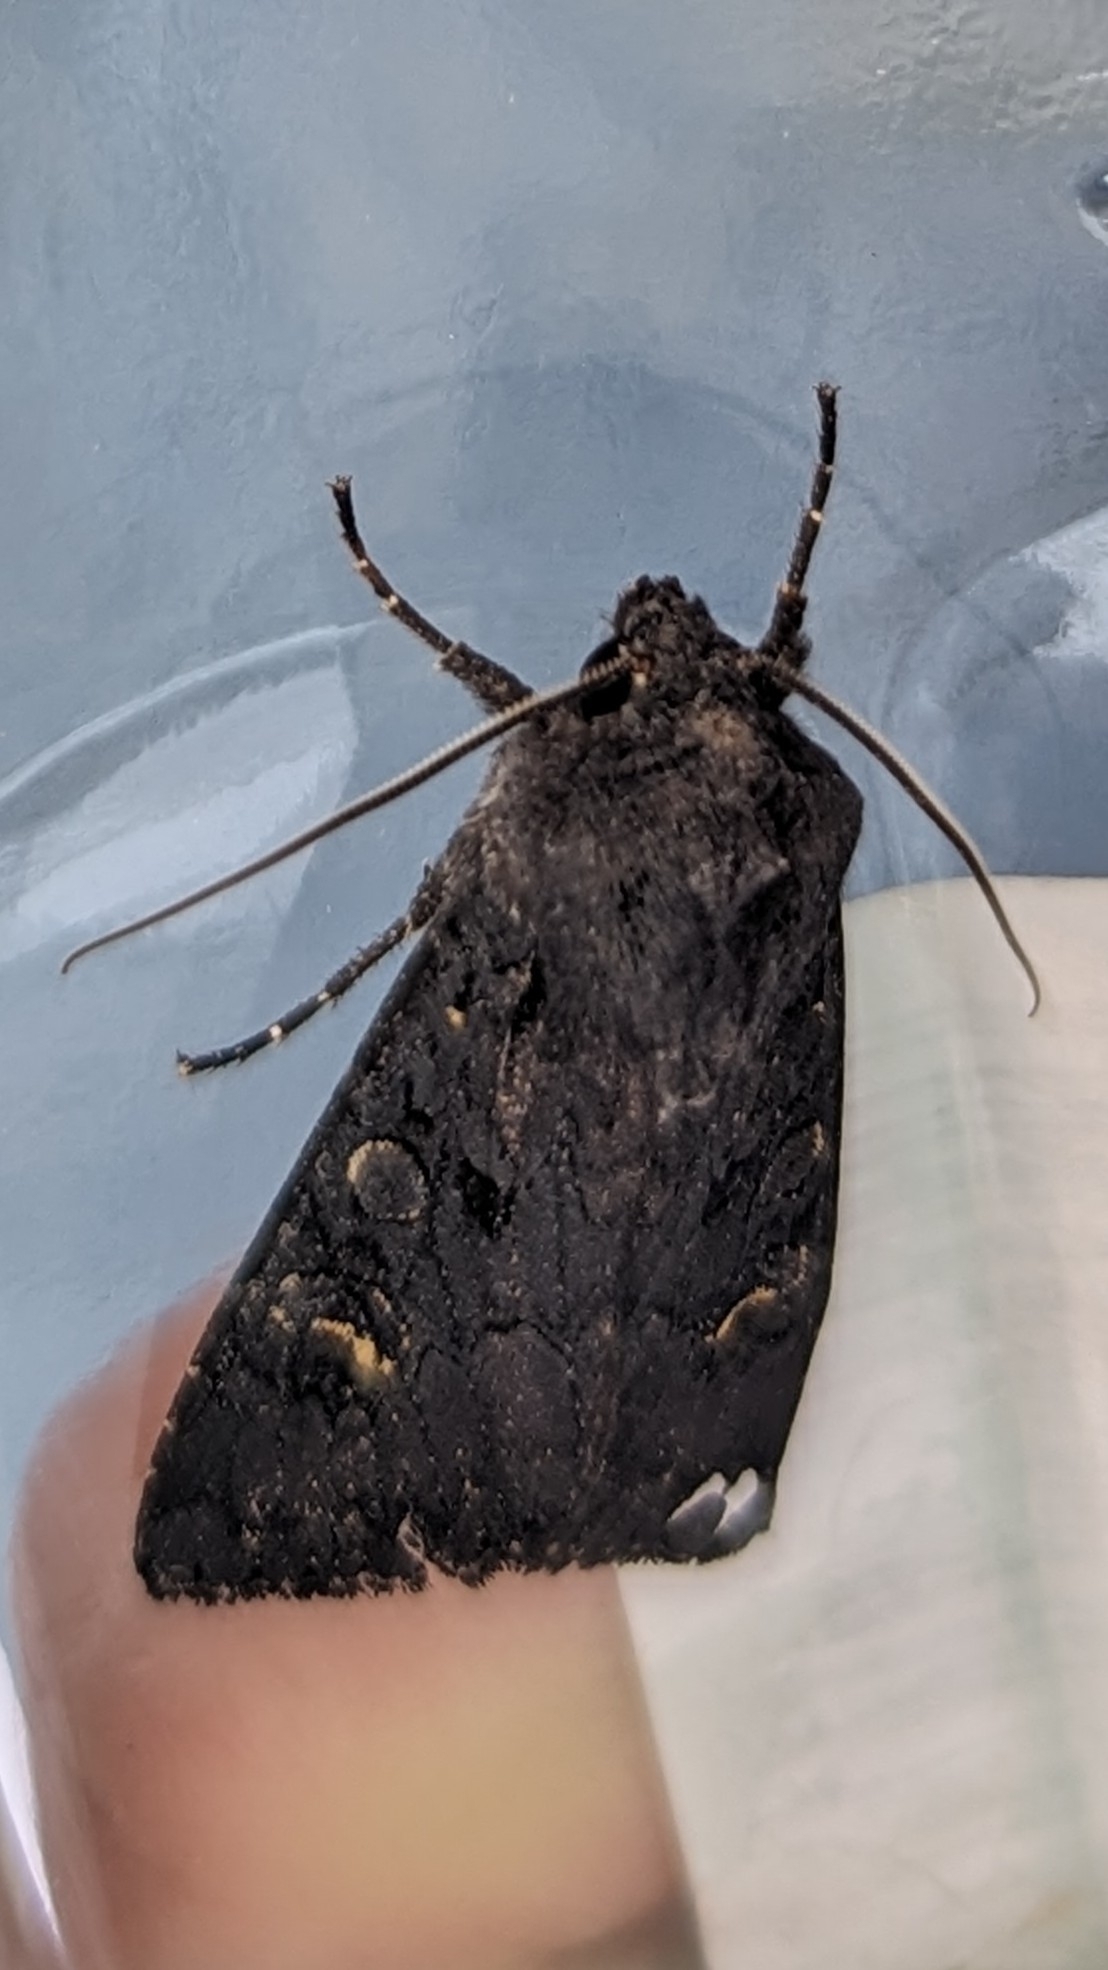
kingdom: Animalia
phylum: Arthropoda
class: Insecta
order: Lepidoptera
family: Noctuidae
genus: Aporophyla
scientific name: Aporophyla nigra
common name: Black rustic
